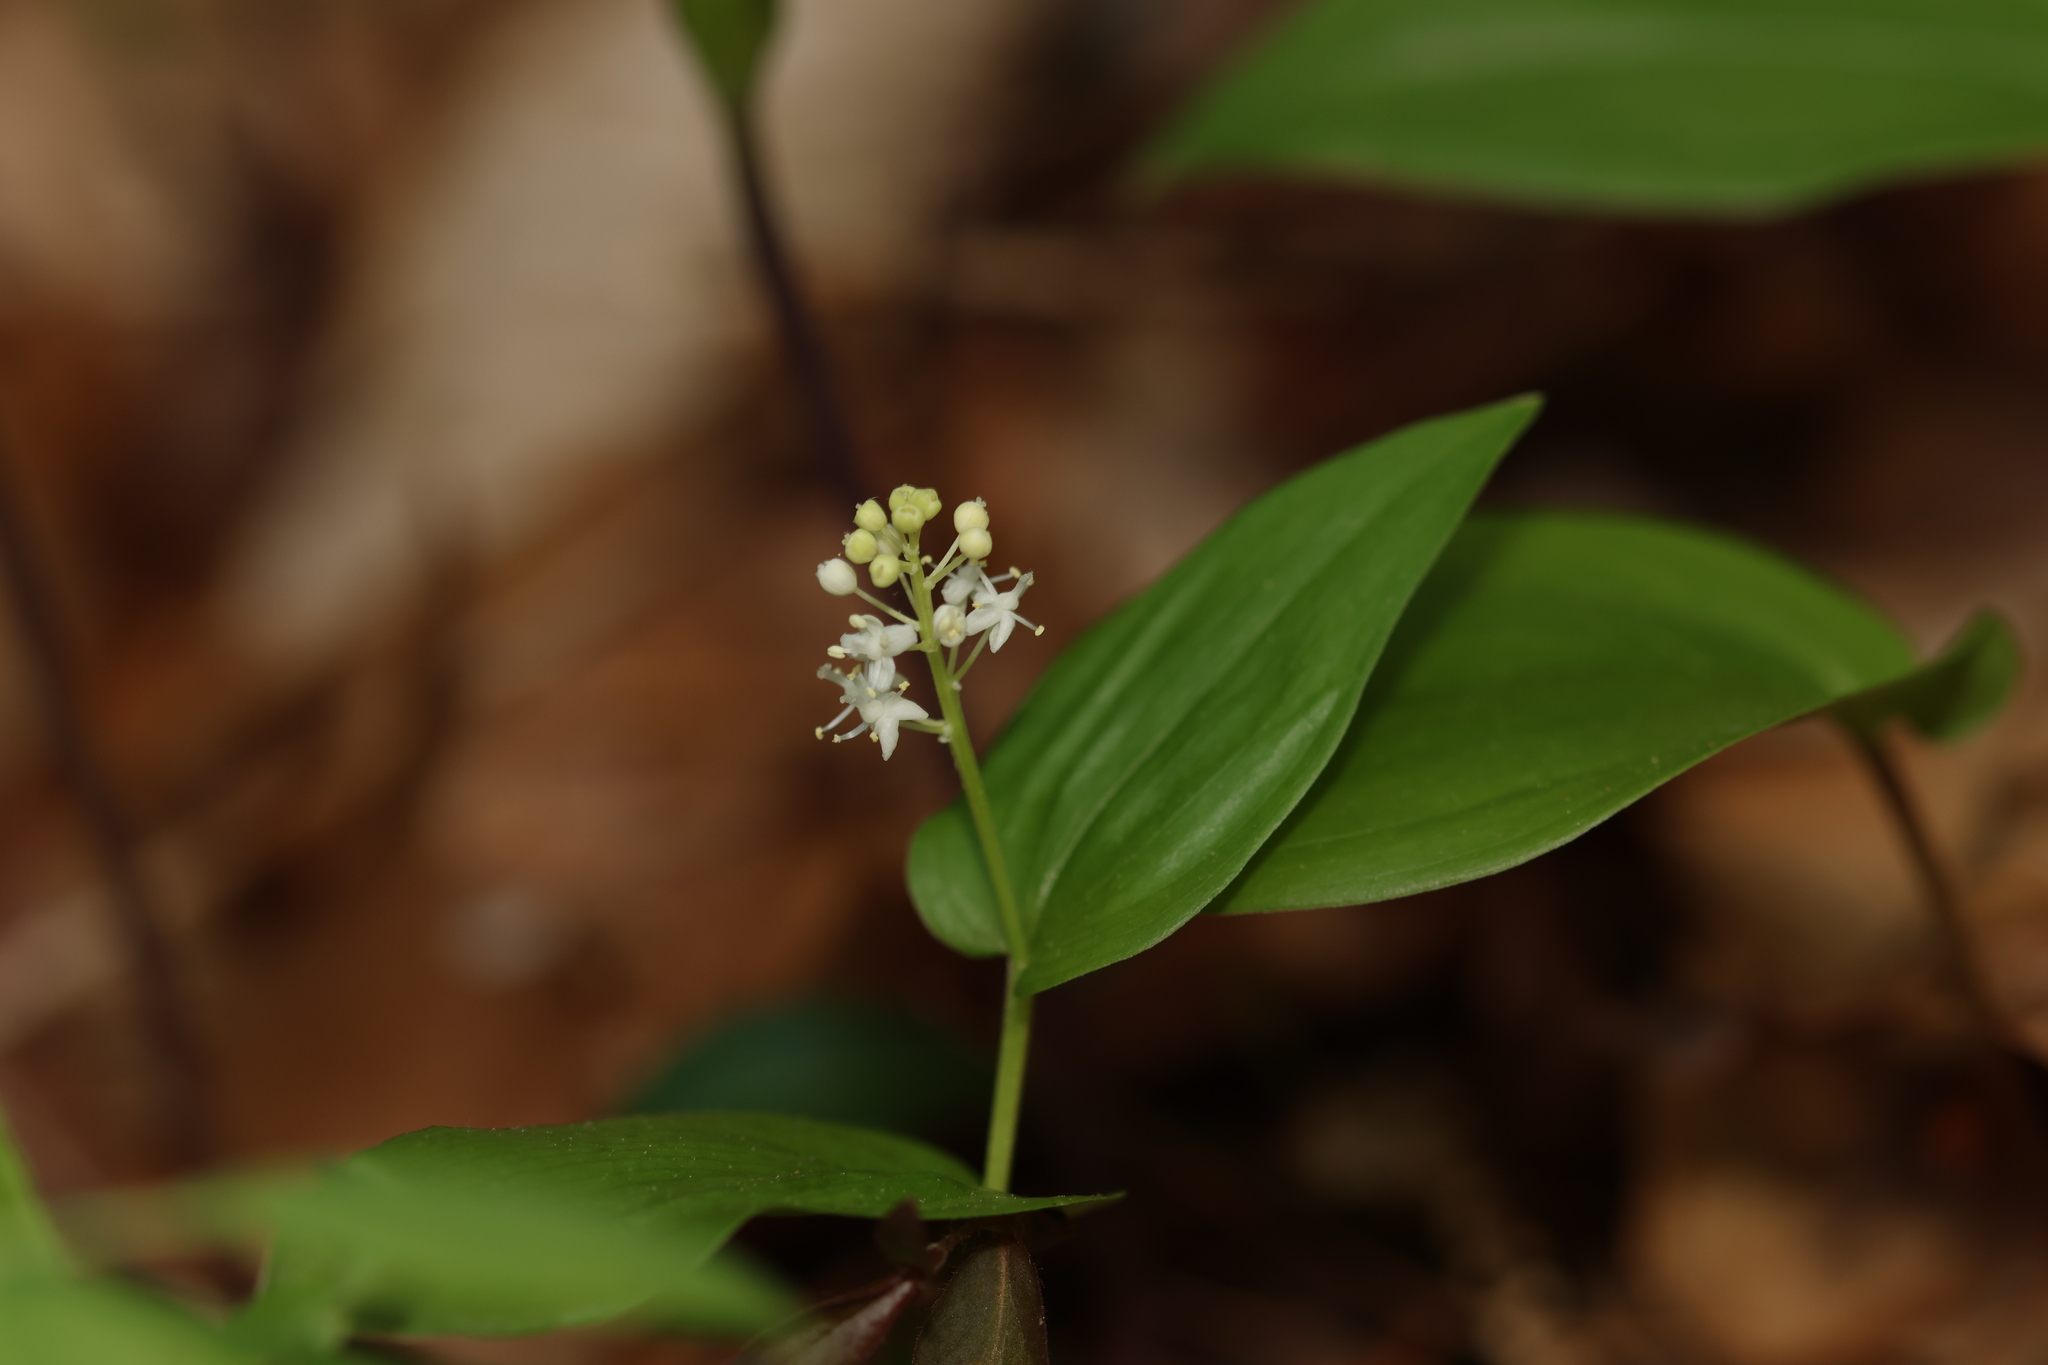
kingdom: Plantae
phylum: Tracheophyta
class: Liliopsida
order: Asparagales
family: Asparagaceae
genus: Maianthemum
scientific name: Maianthemum canadense
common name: False lily-of-the-valley
